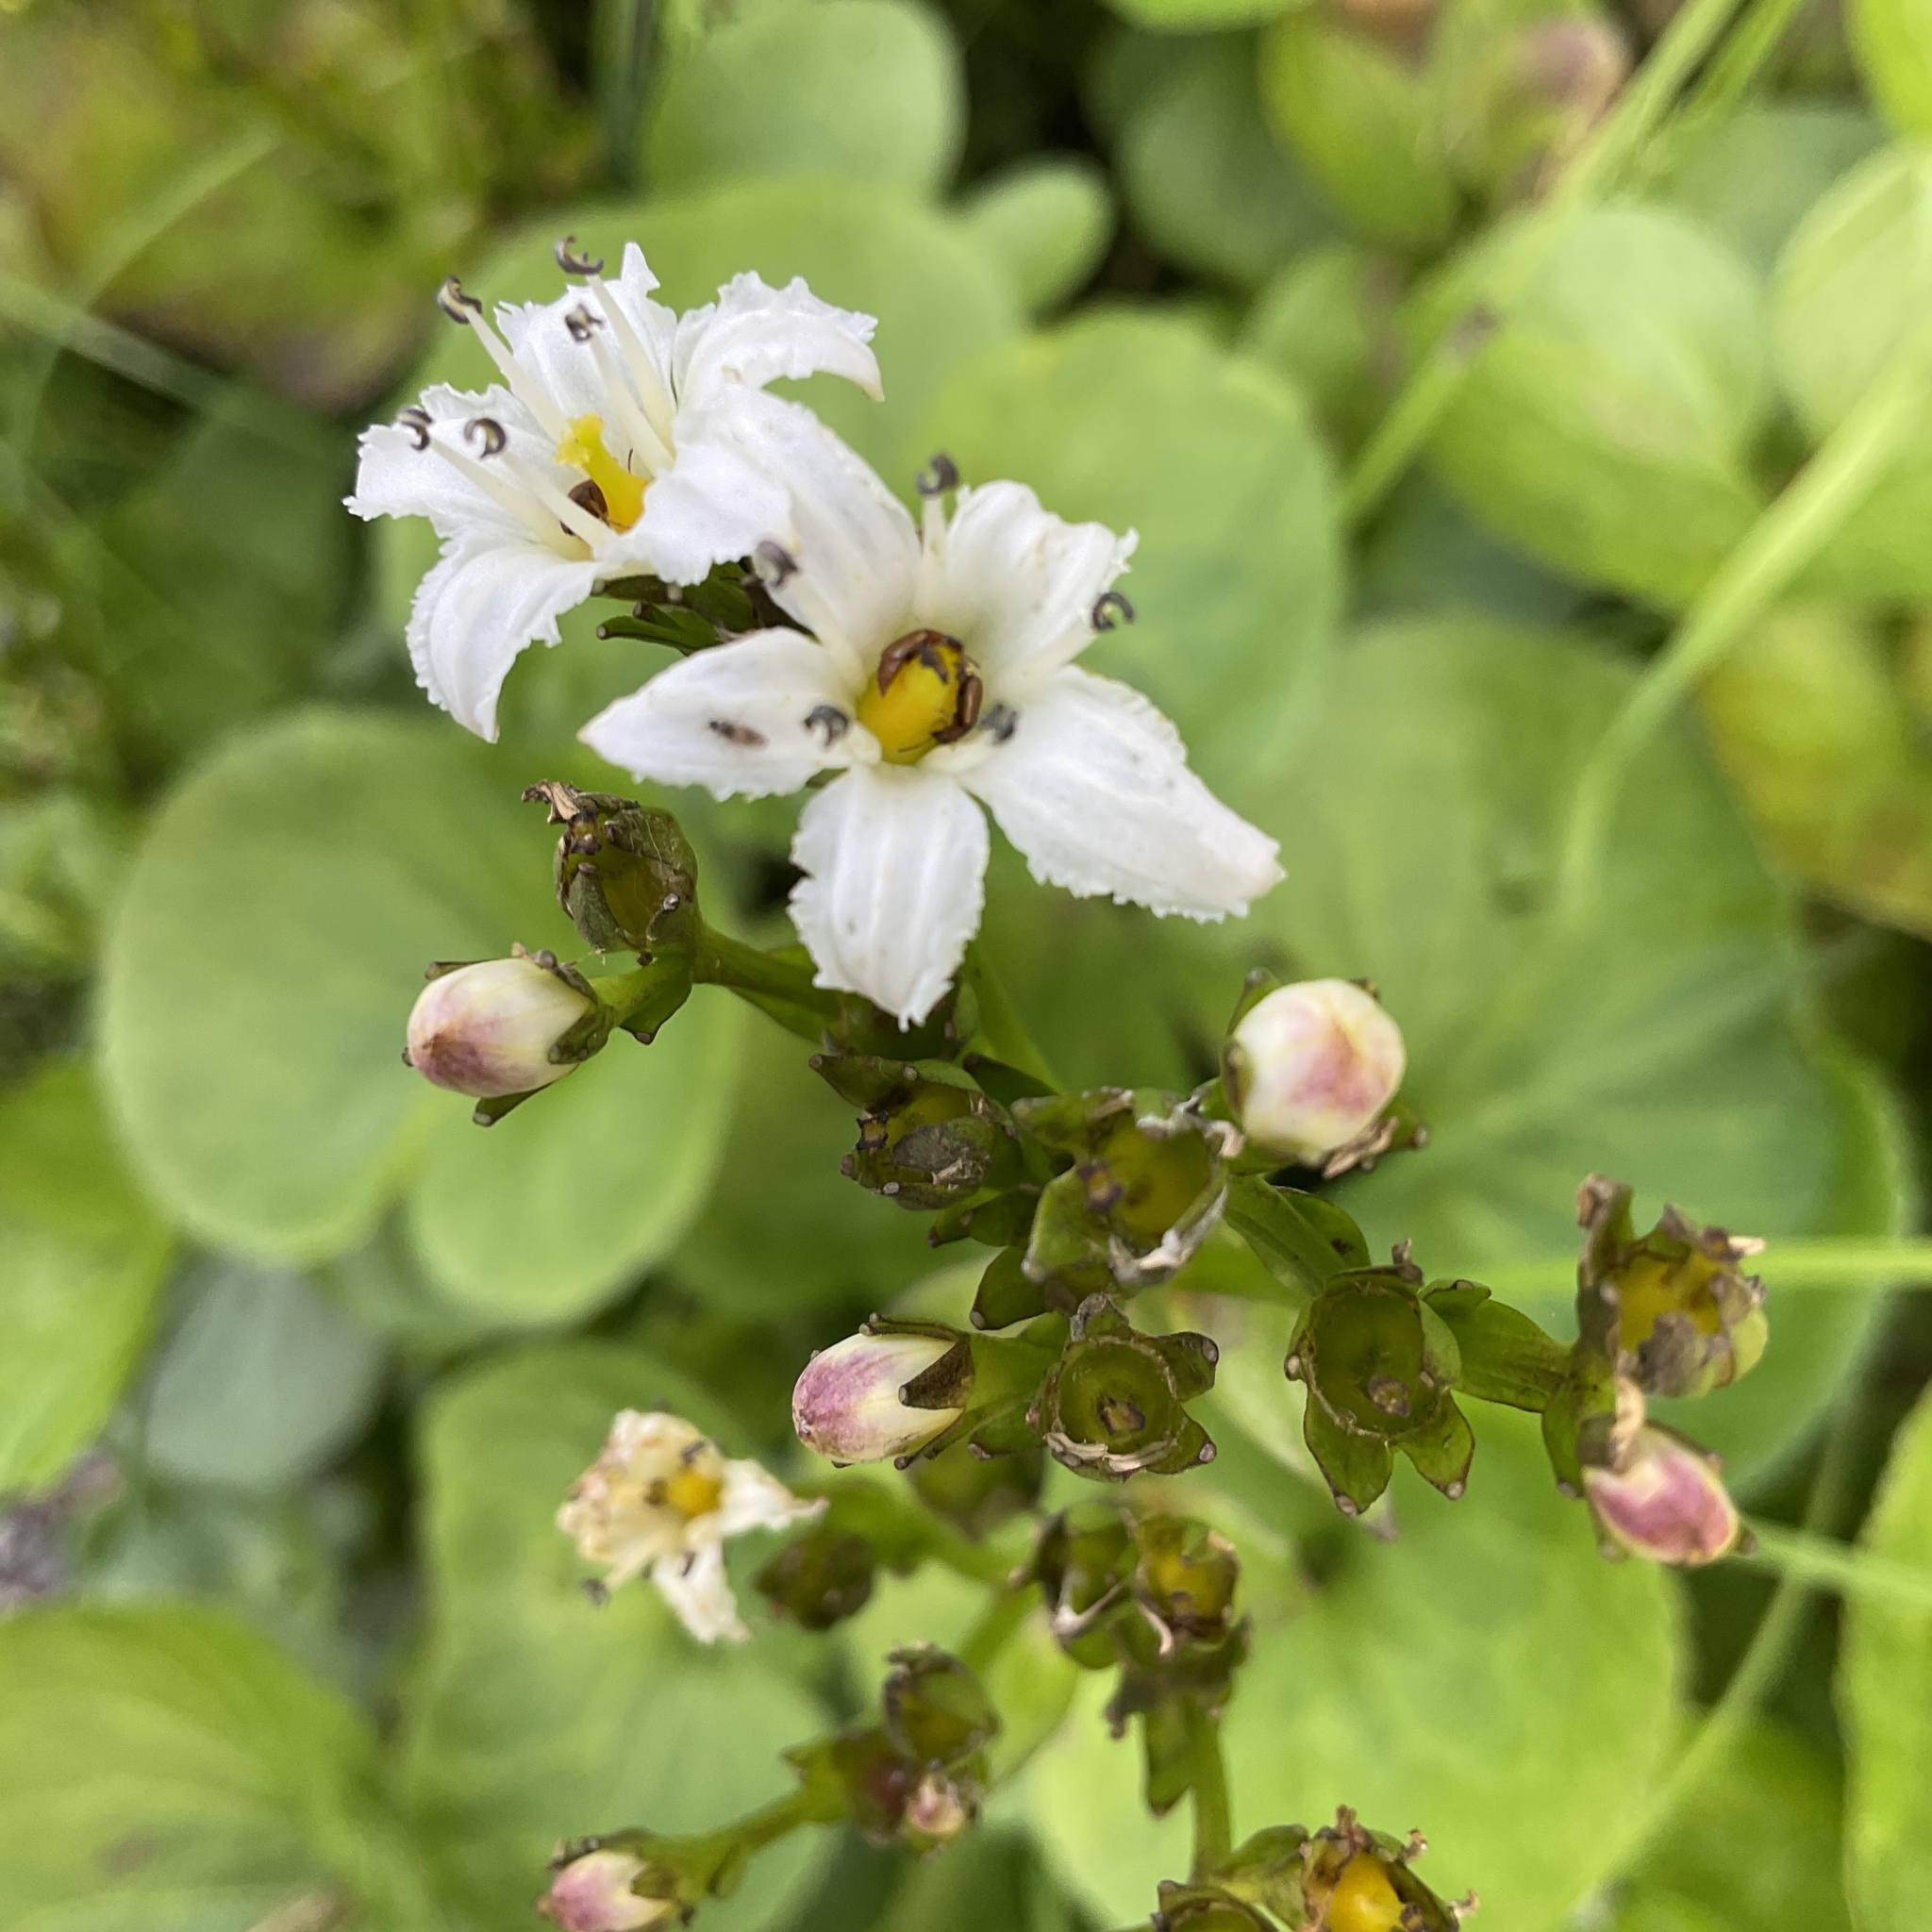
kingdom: Plantae
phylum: Tracheophyta
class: Magnoliopsida
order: Asterales
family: Menyanthaceae
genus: Nephrophyllidium
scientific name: Nephrophyllidium crista-galli
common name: Deer-cabbage
